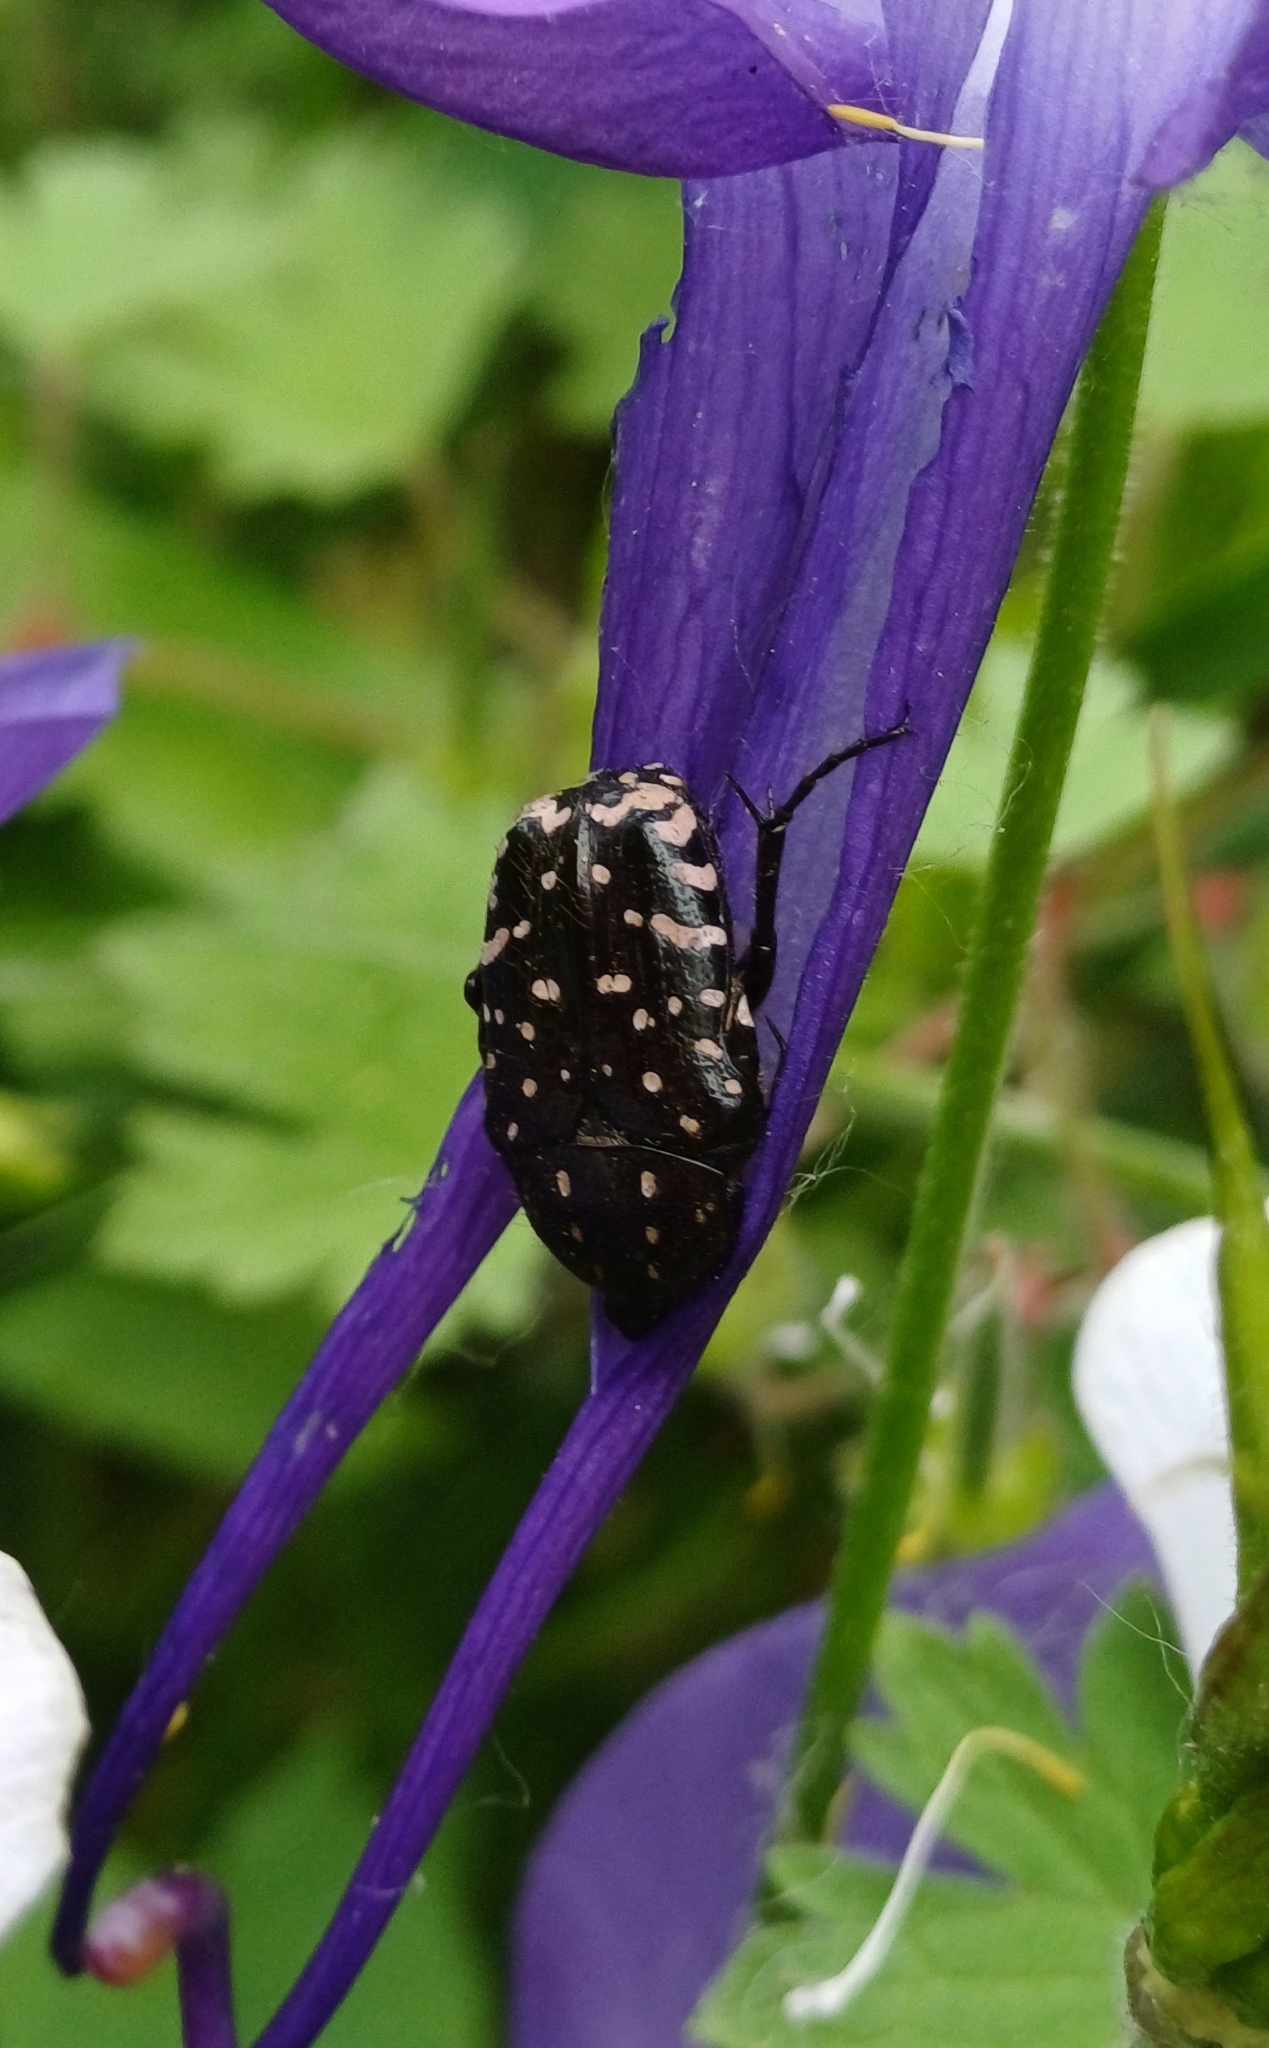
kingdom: Animalia
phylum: Arthropoda
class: Insecta
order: Coleoptera
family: Scarabaeidae
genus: Oxythyrea
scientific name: Oxythyrea funesta
